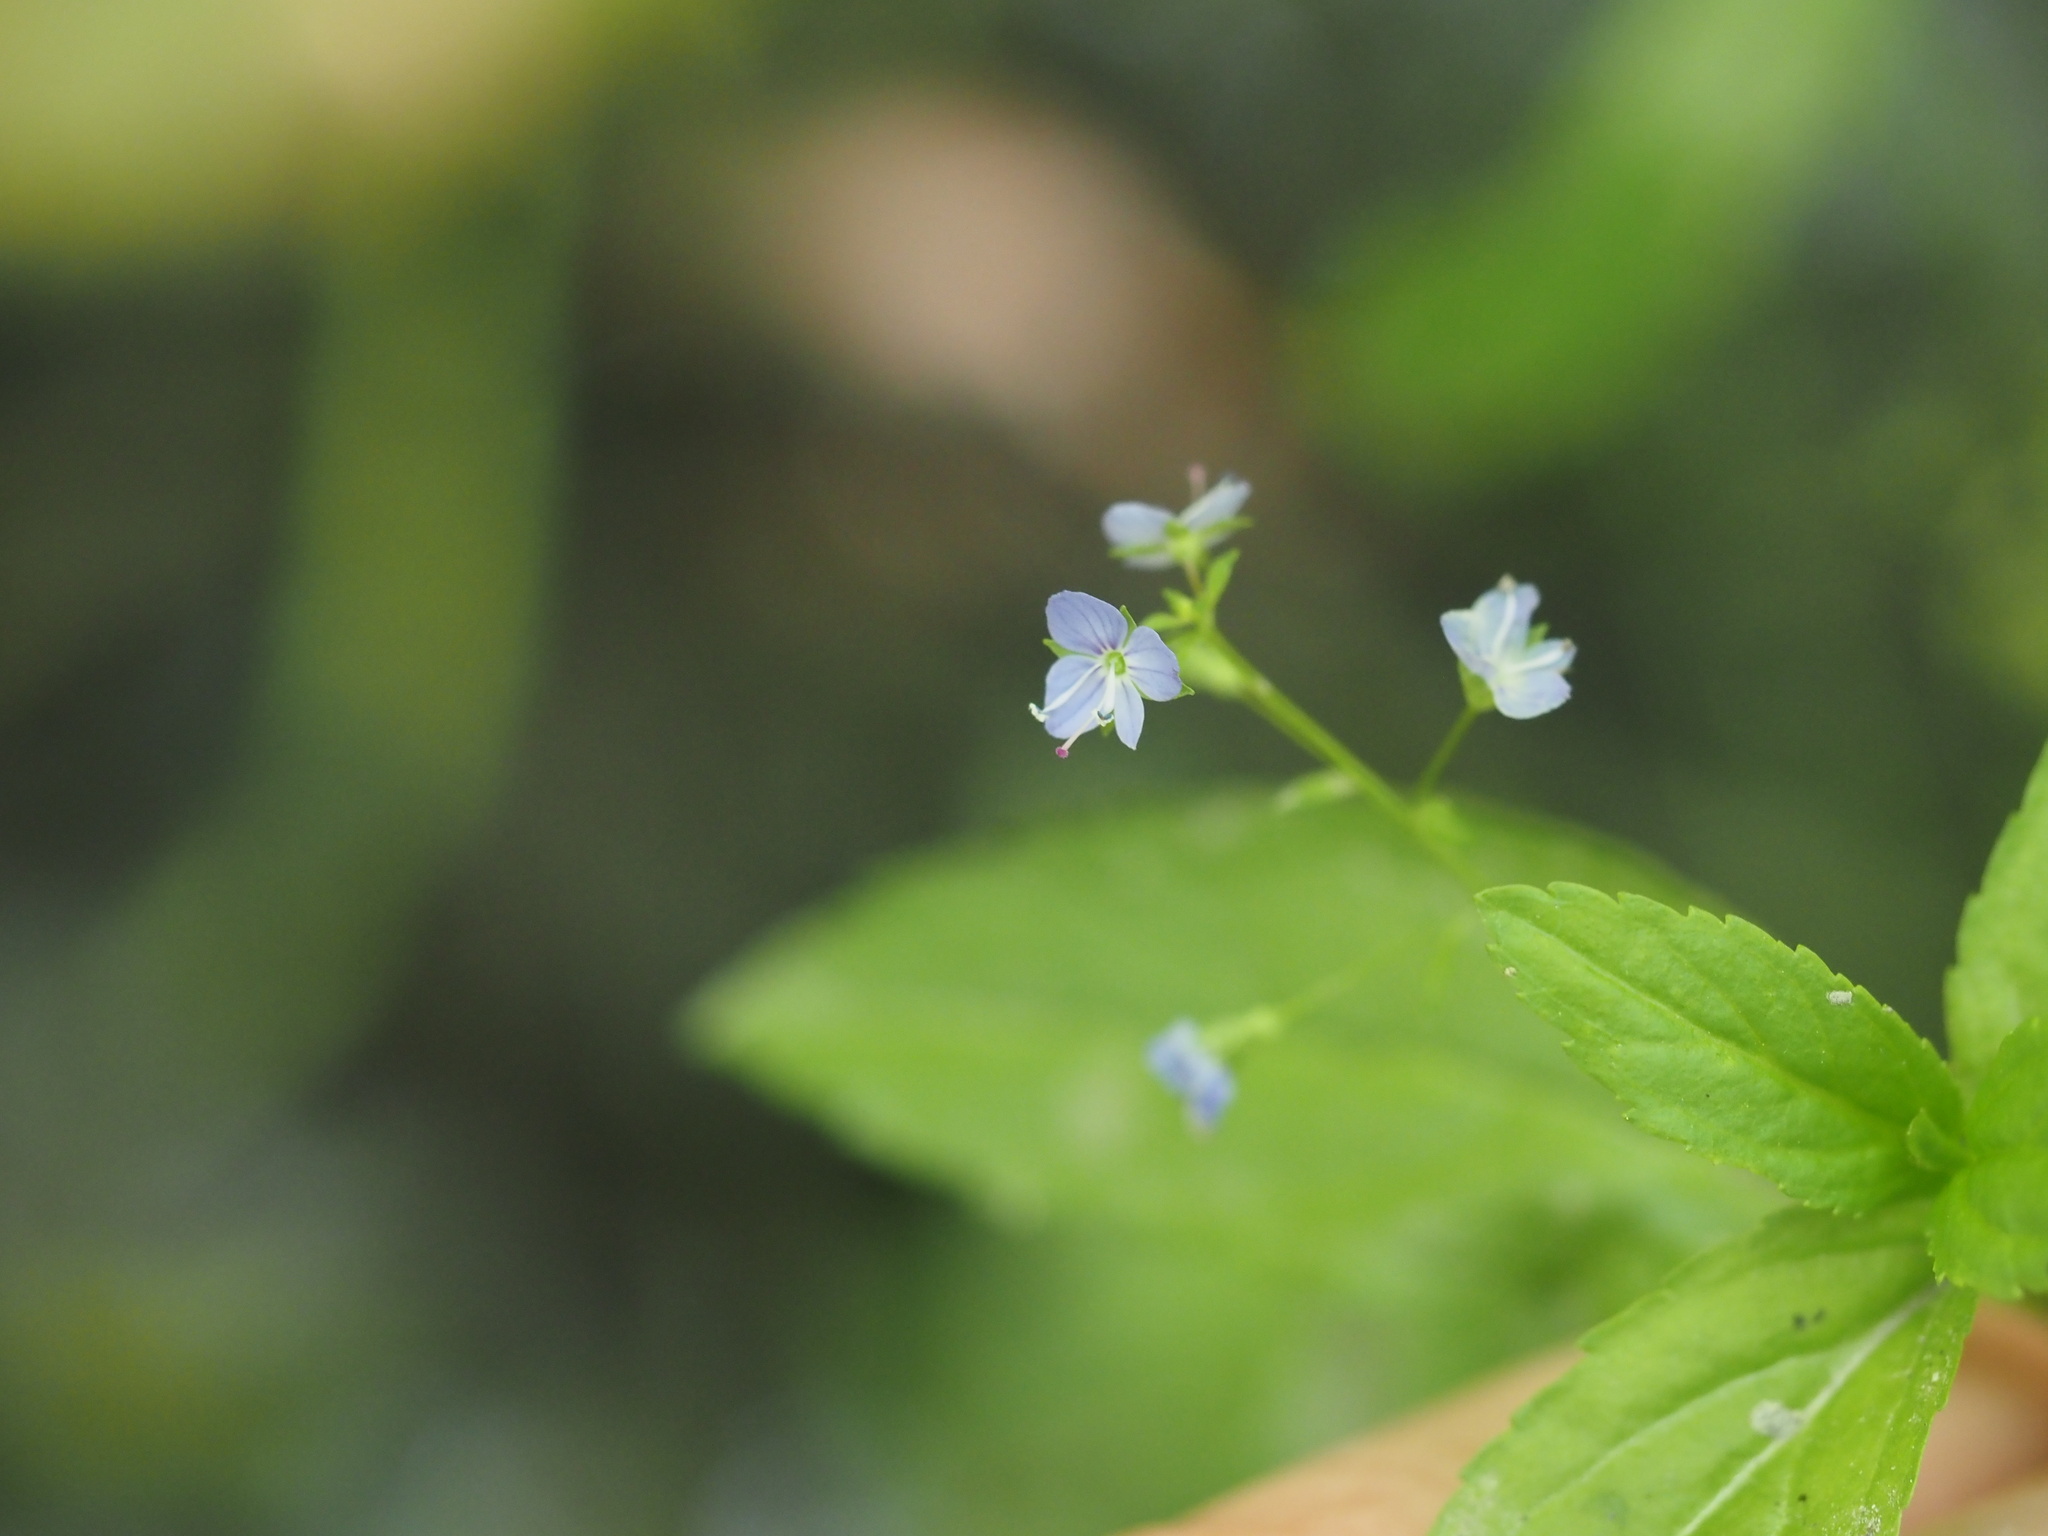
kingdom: Plantae
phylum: Tracheophyta
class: Magnoliopsida
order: Lamiales
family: Plantaginaceae
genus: Veronica
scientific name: Veronica americana
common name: American brooklime
